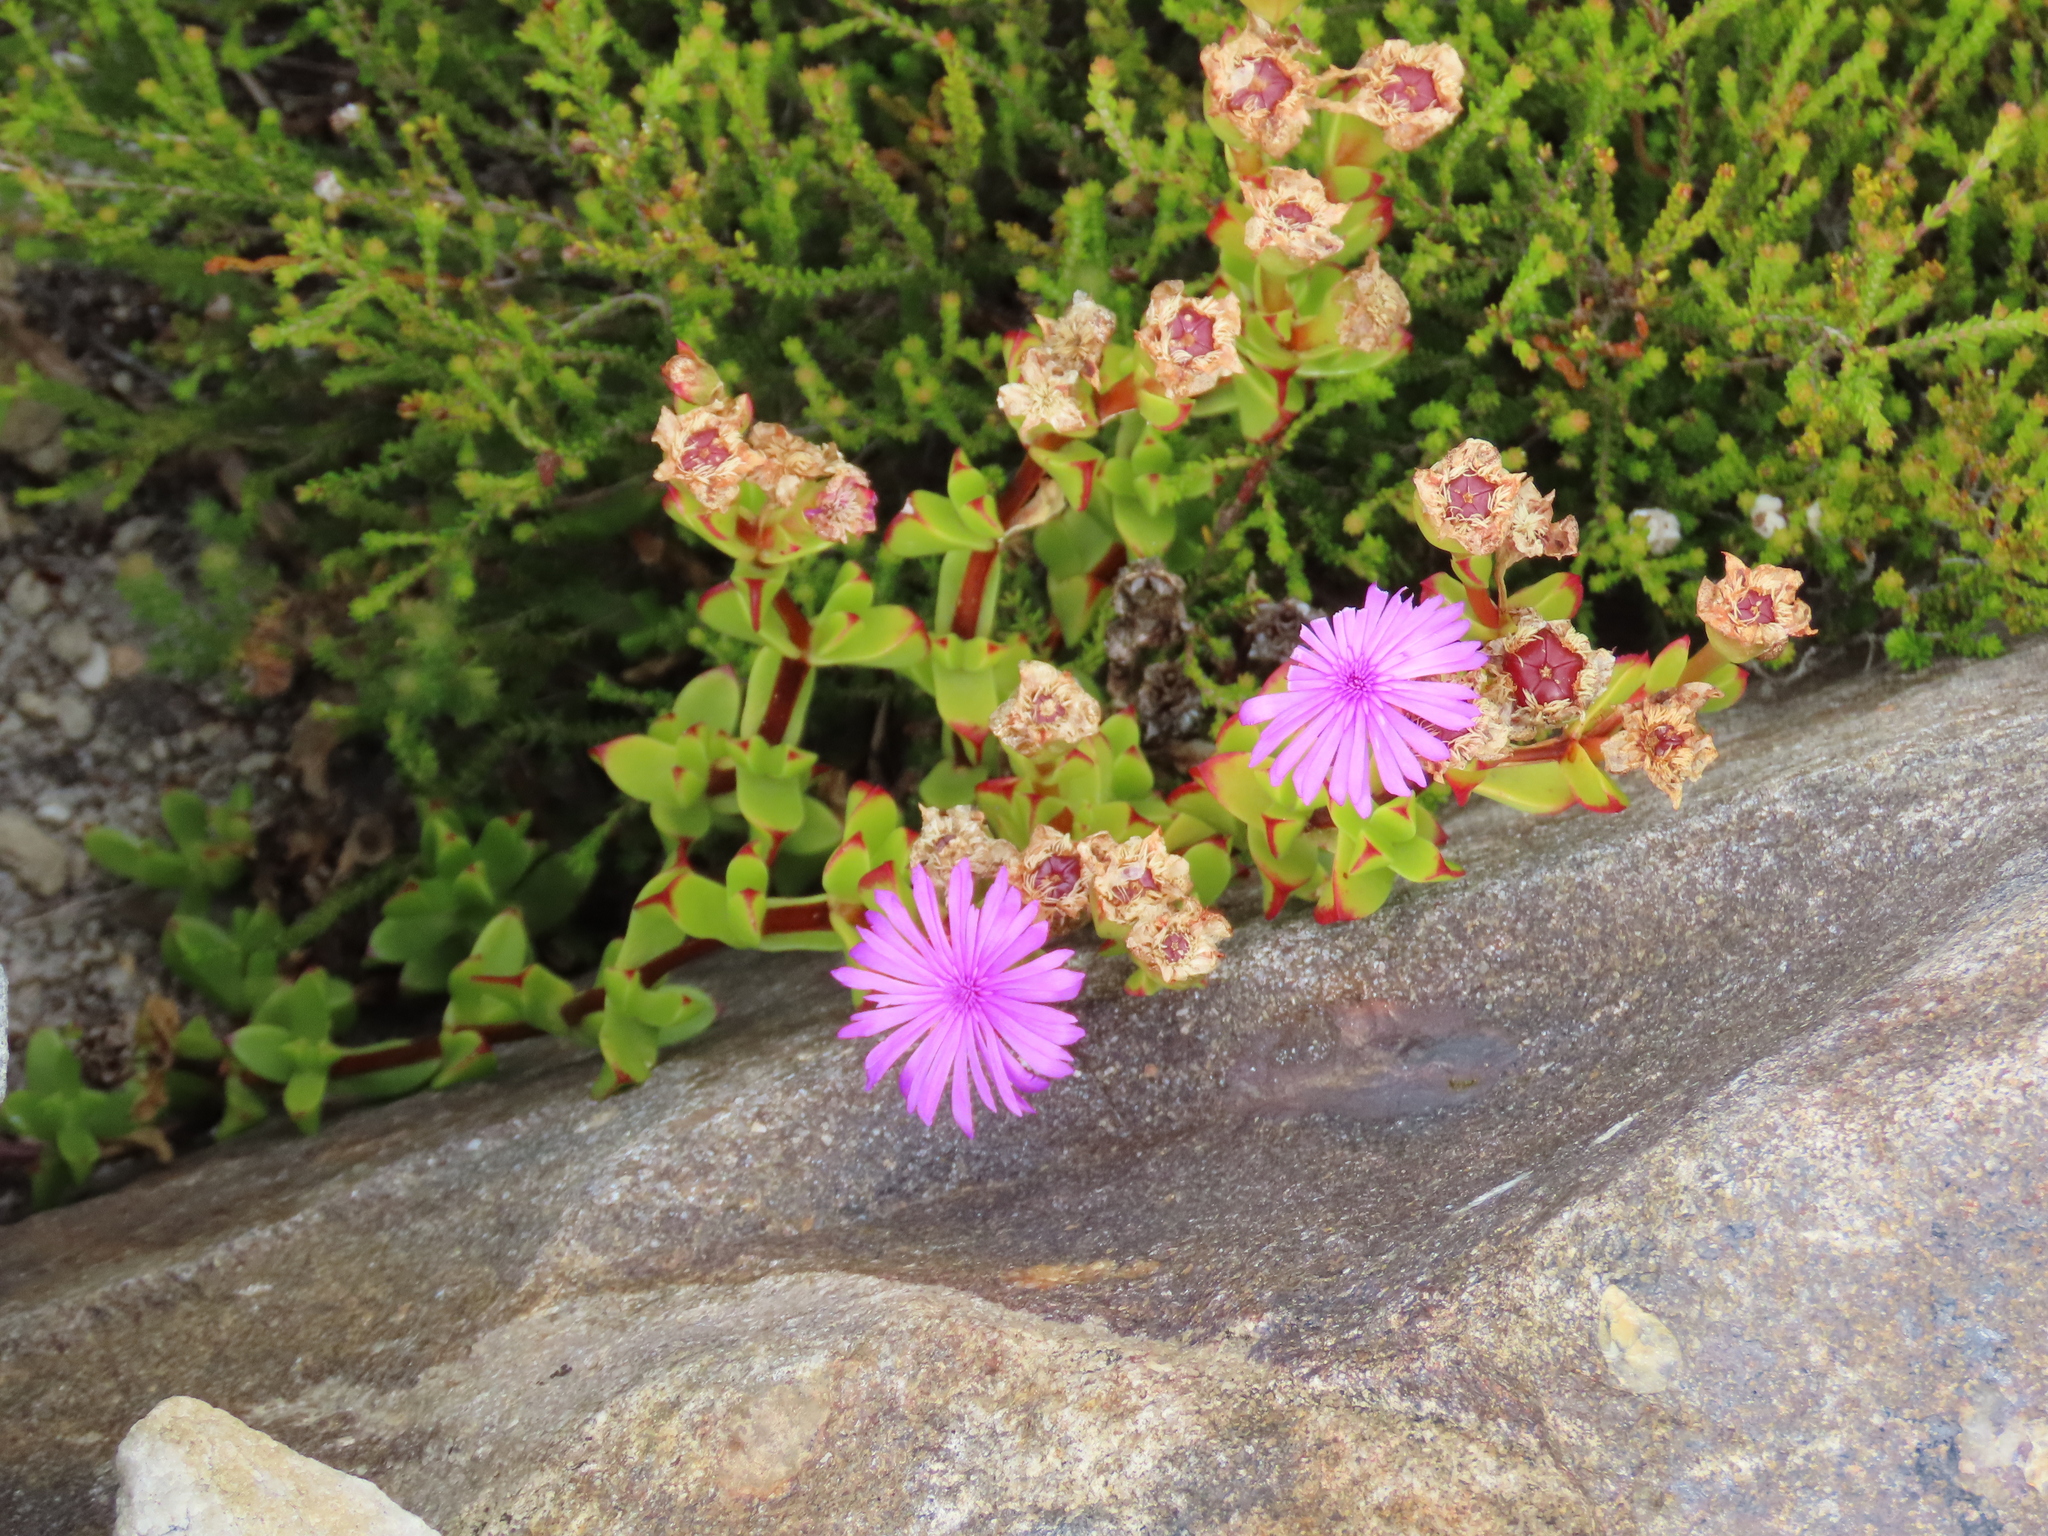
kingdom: Plantae
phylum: Tracheophyta
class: Magnoliopsida
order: Caryophyllales
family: Aizoaceae
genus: Erepsia
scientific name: Erepsia inclaudens
